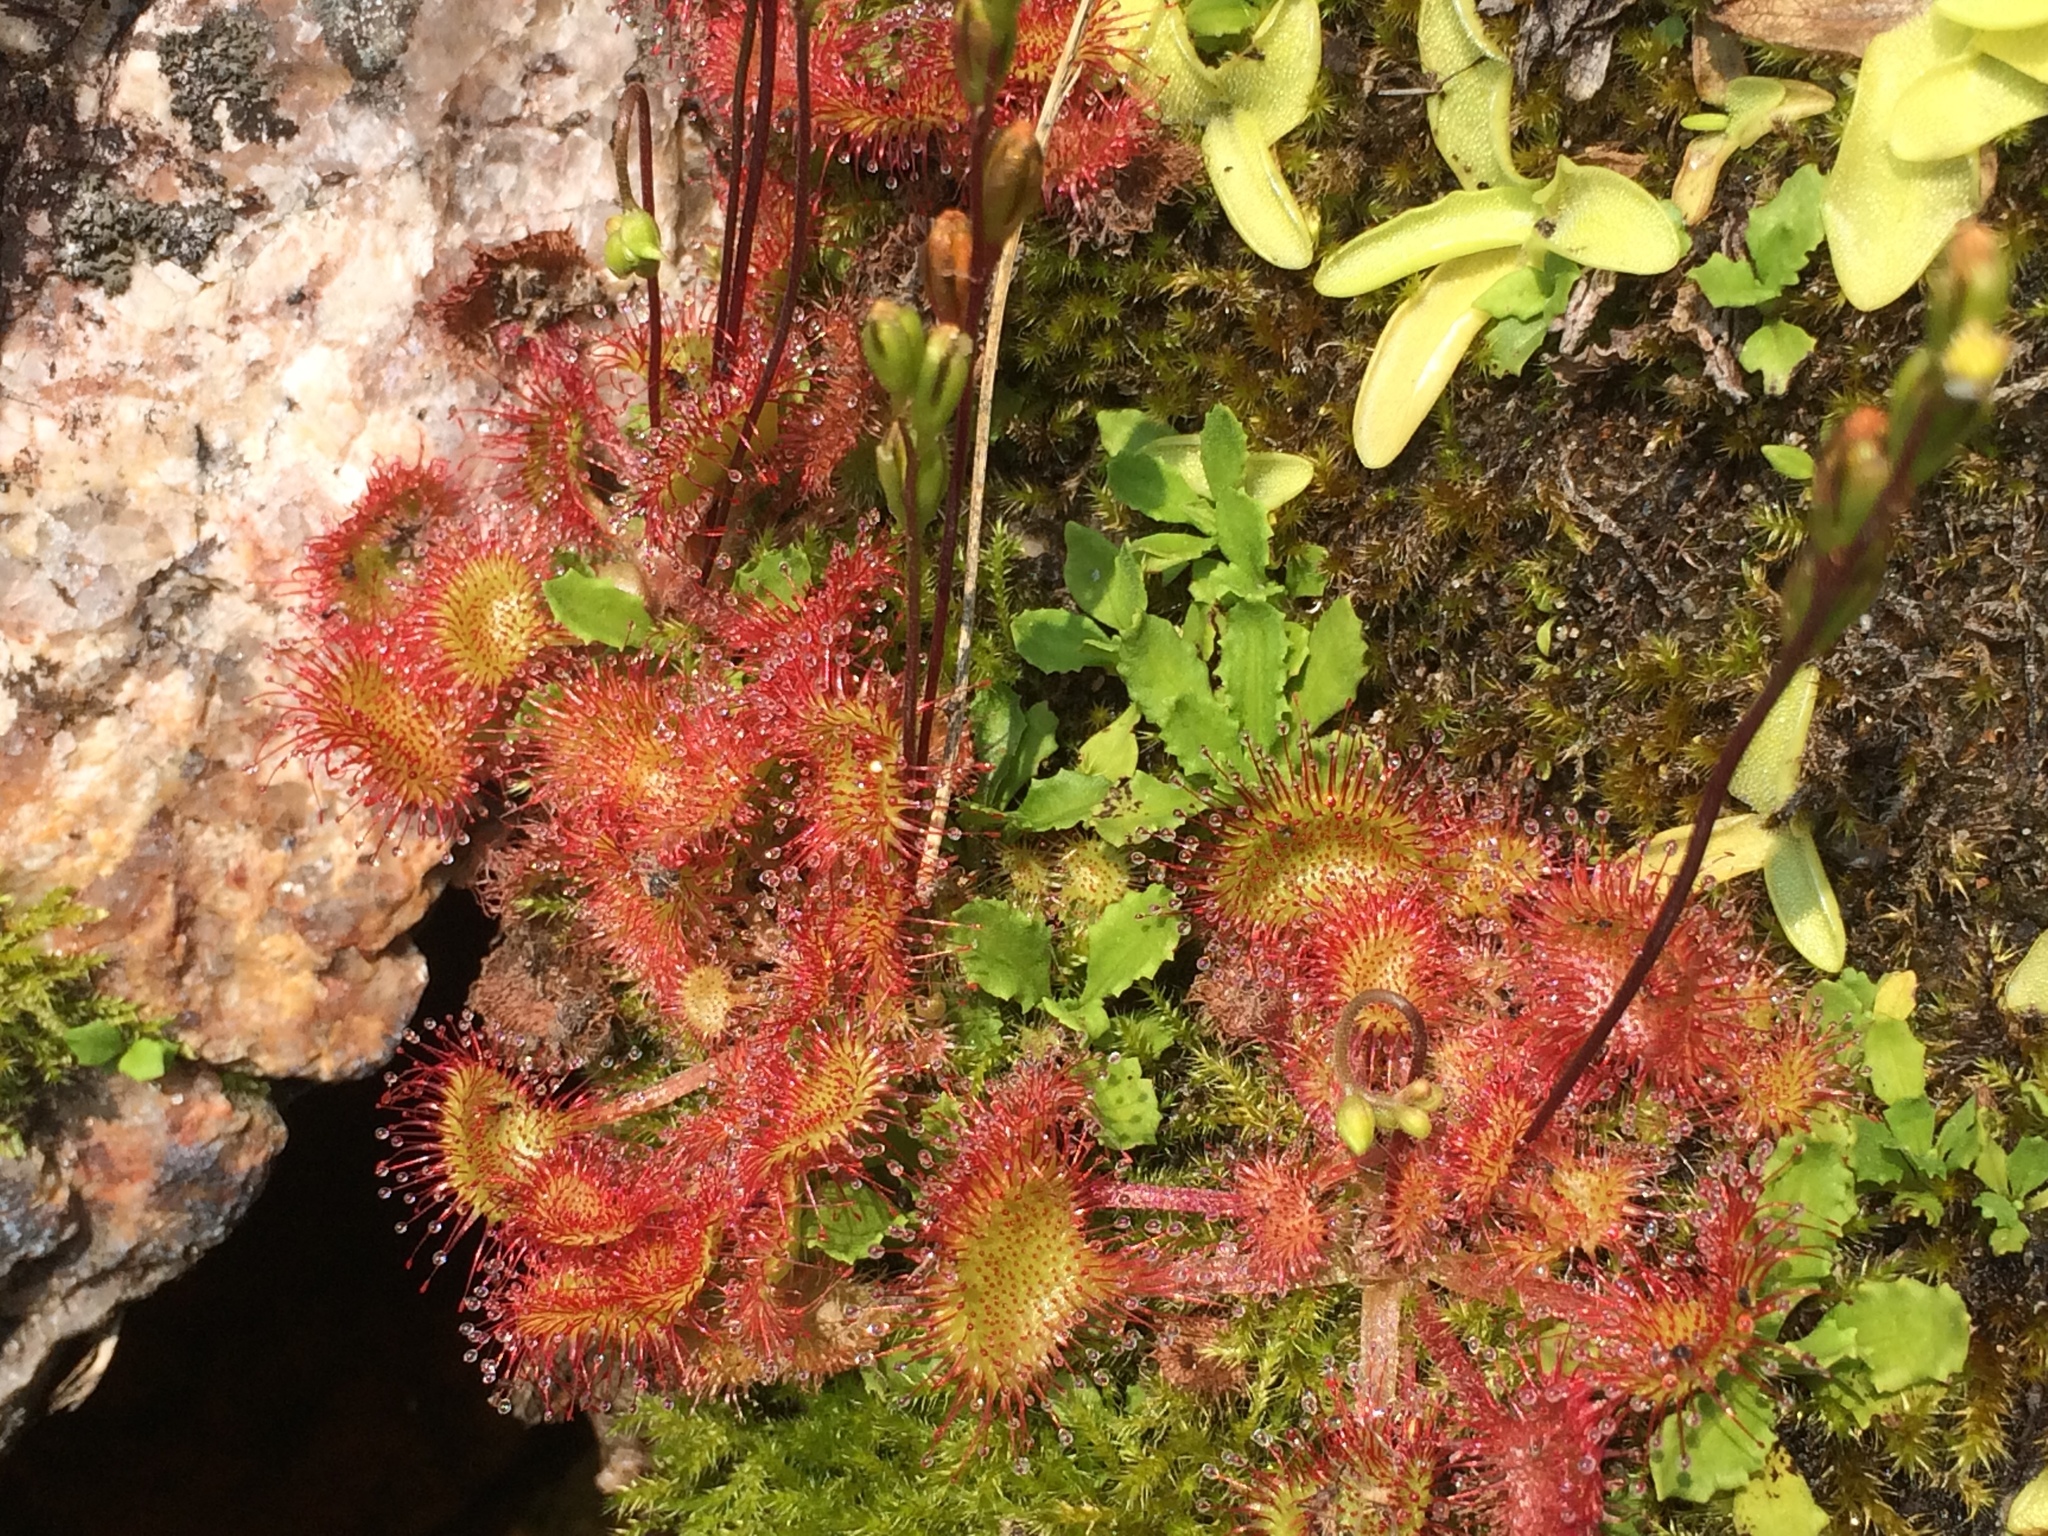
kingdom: Plantae
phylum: Tracheophyta
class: Magnoliopsida
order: Caryophyllales
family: Droseraceae
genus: Drosera
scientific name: Drosera rotundifolia
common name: Round-leaved sundew
